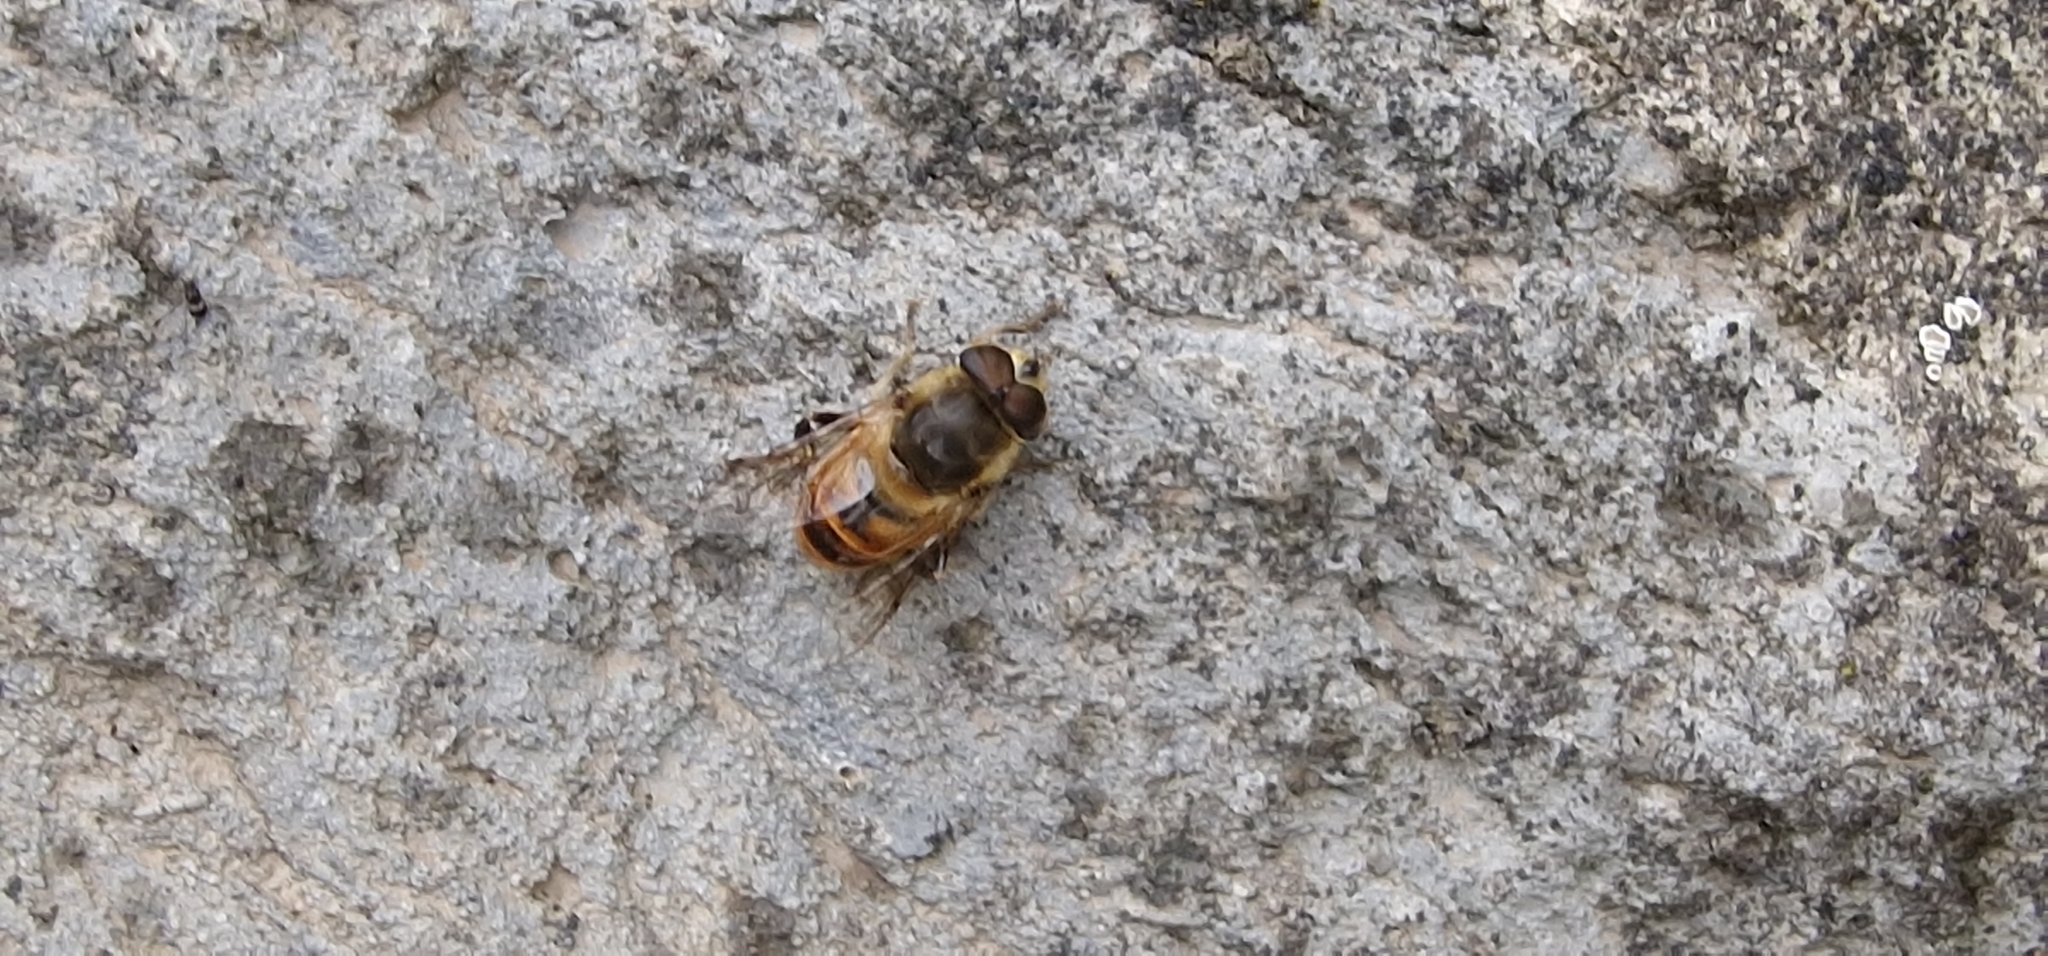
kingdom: Animalia
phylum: Arthropoda
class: Insecta
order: Diptera
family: Syrphidae
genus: Eristalis
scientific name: Eristalis tenax
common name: Drone fly
